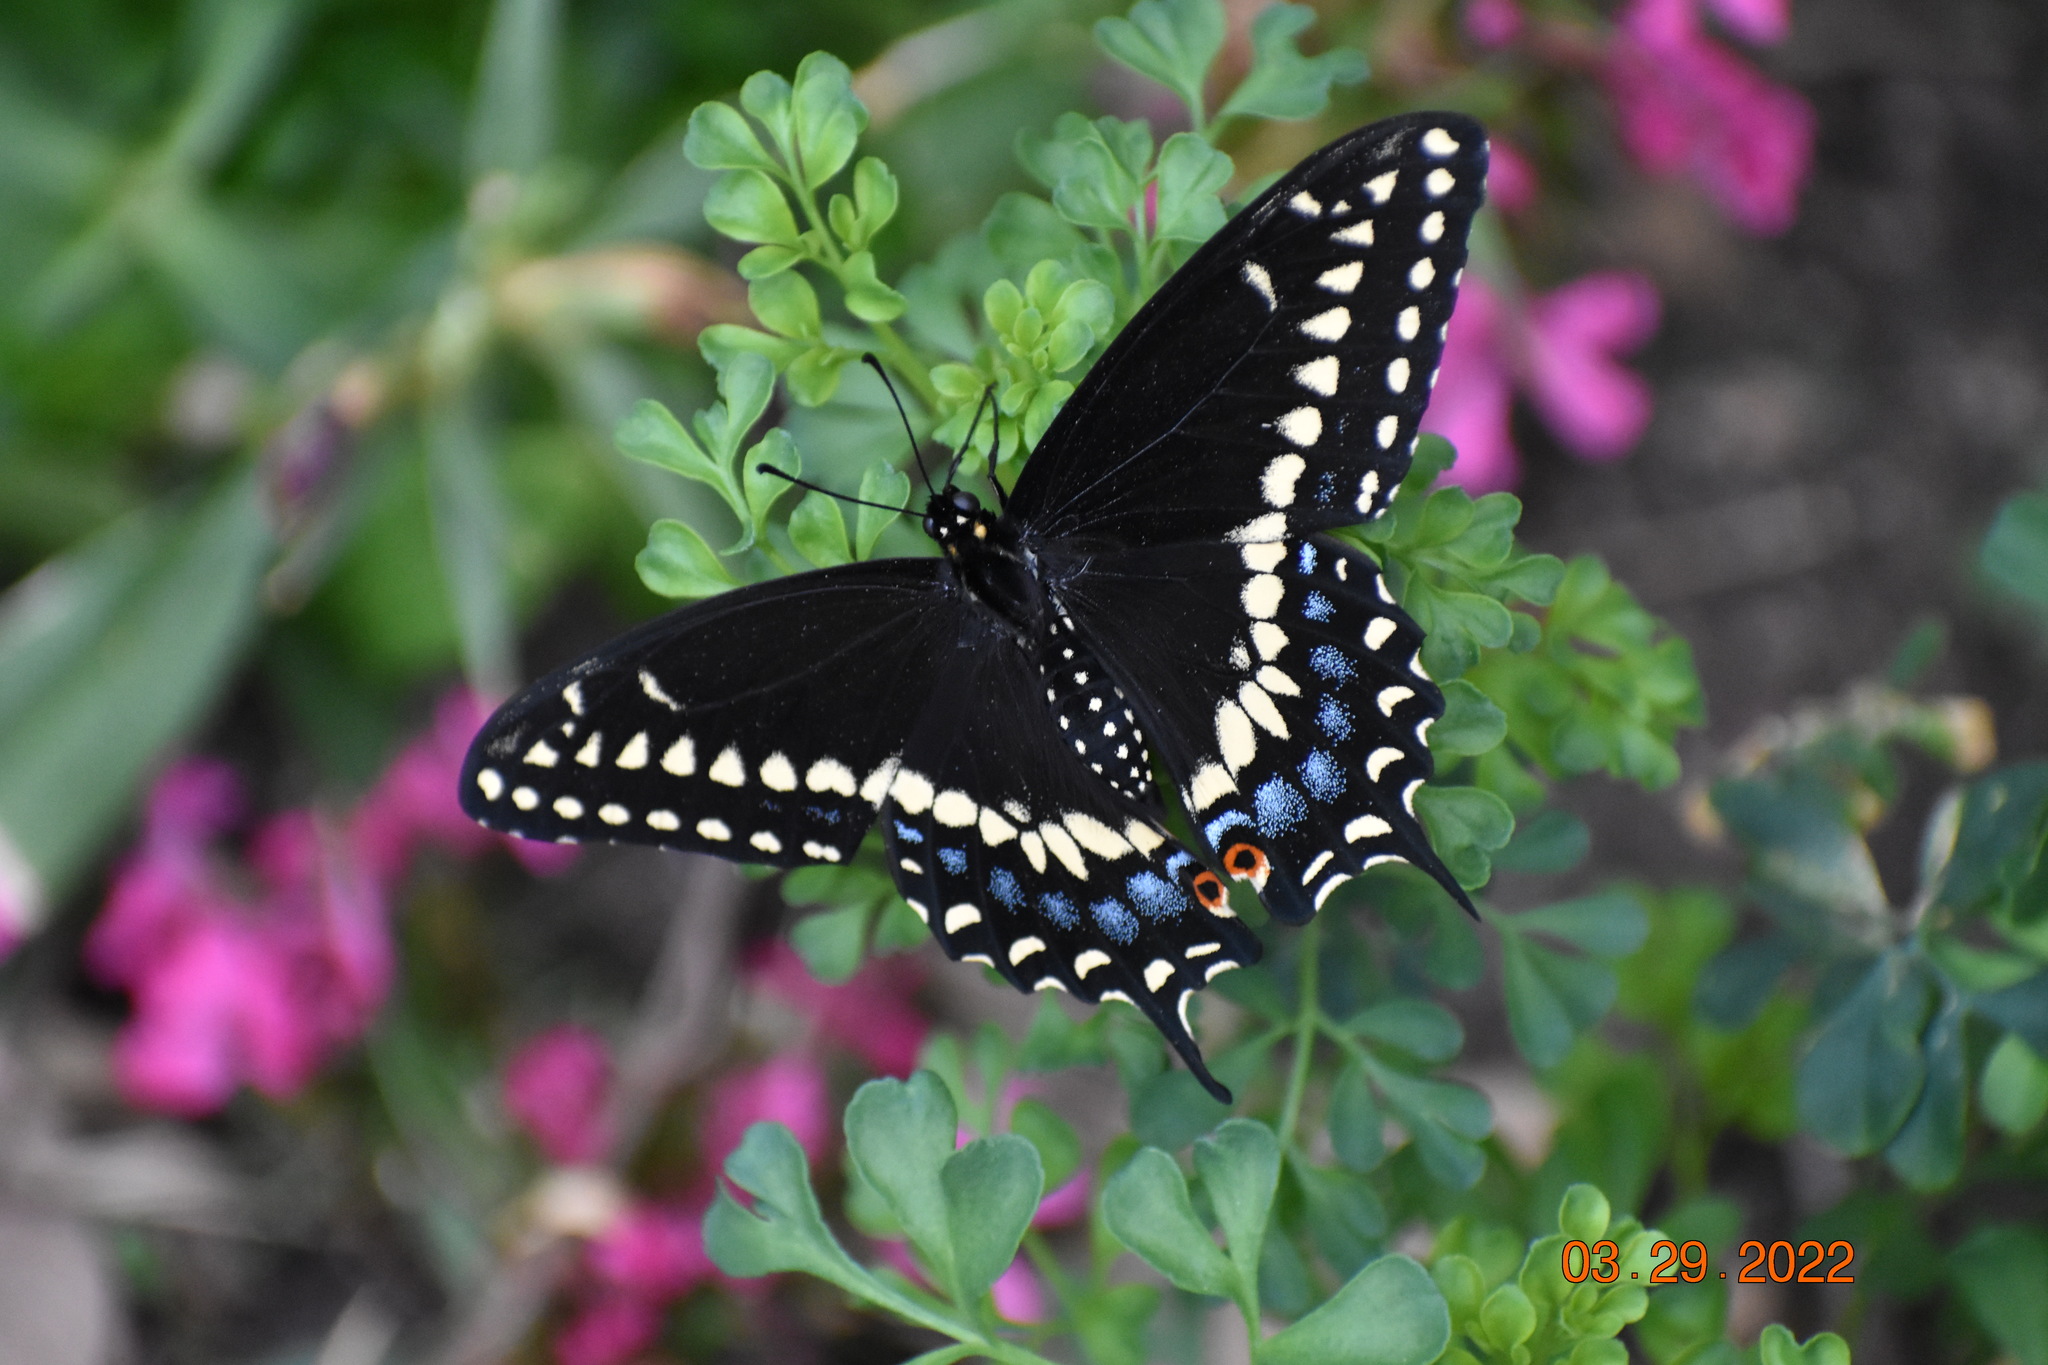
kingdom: Animalia
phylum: Arthropoda
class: Insecta
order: Lepidoptera
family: Papilionidae
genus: Papilio
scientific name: Papilio polyxenes
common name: Black swallowtail
